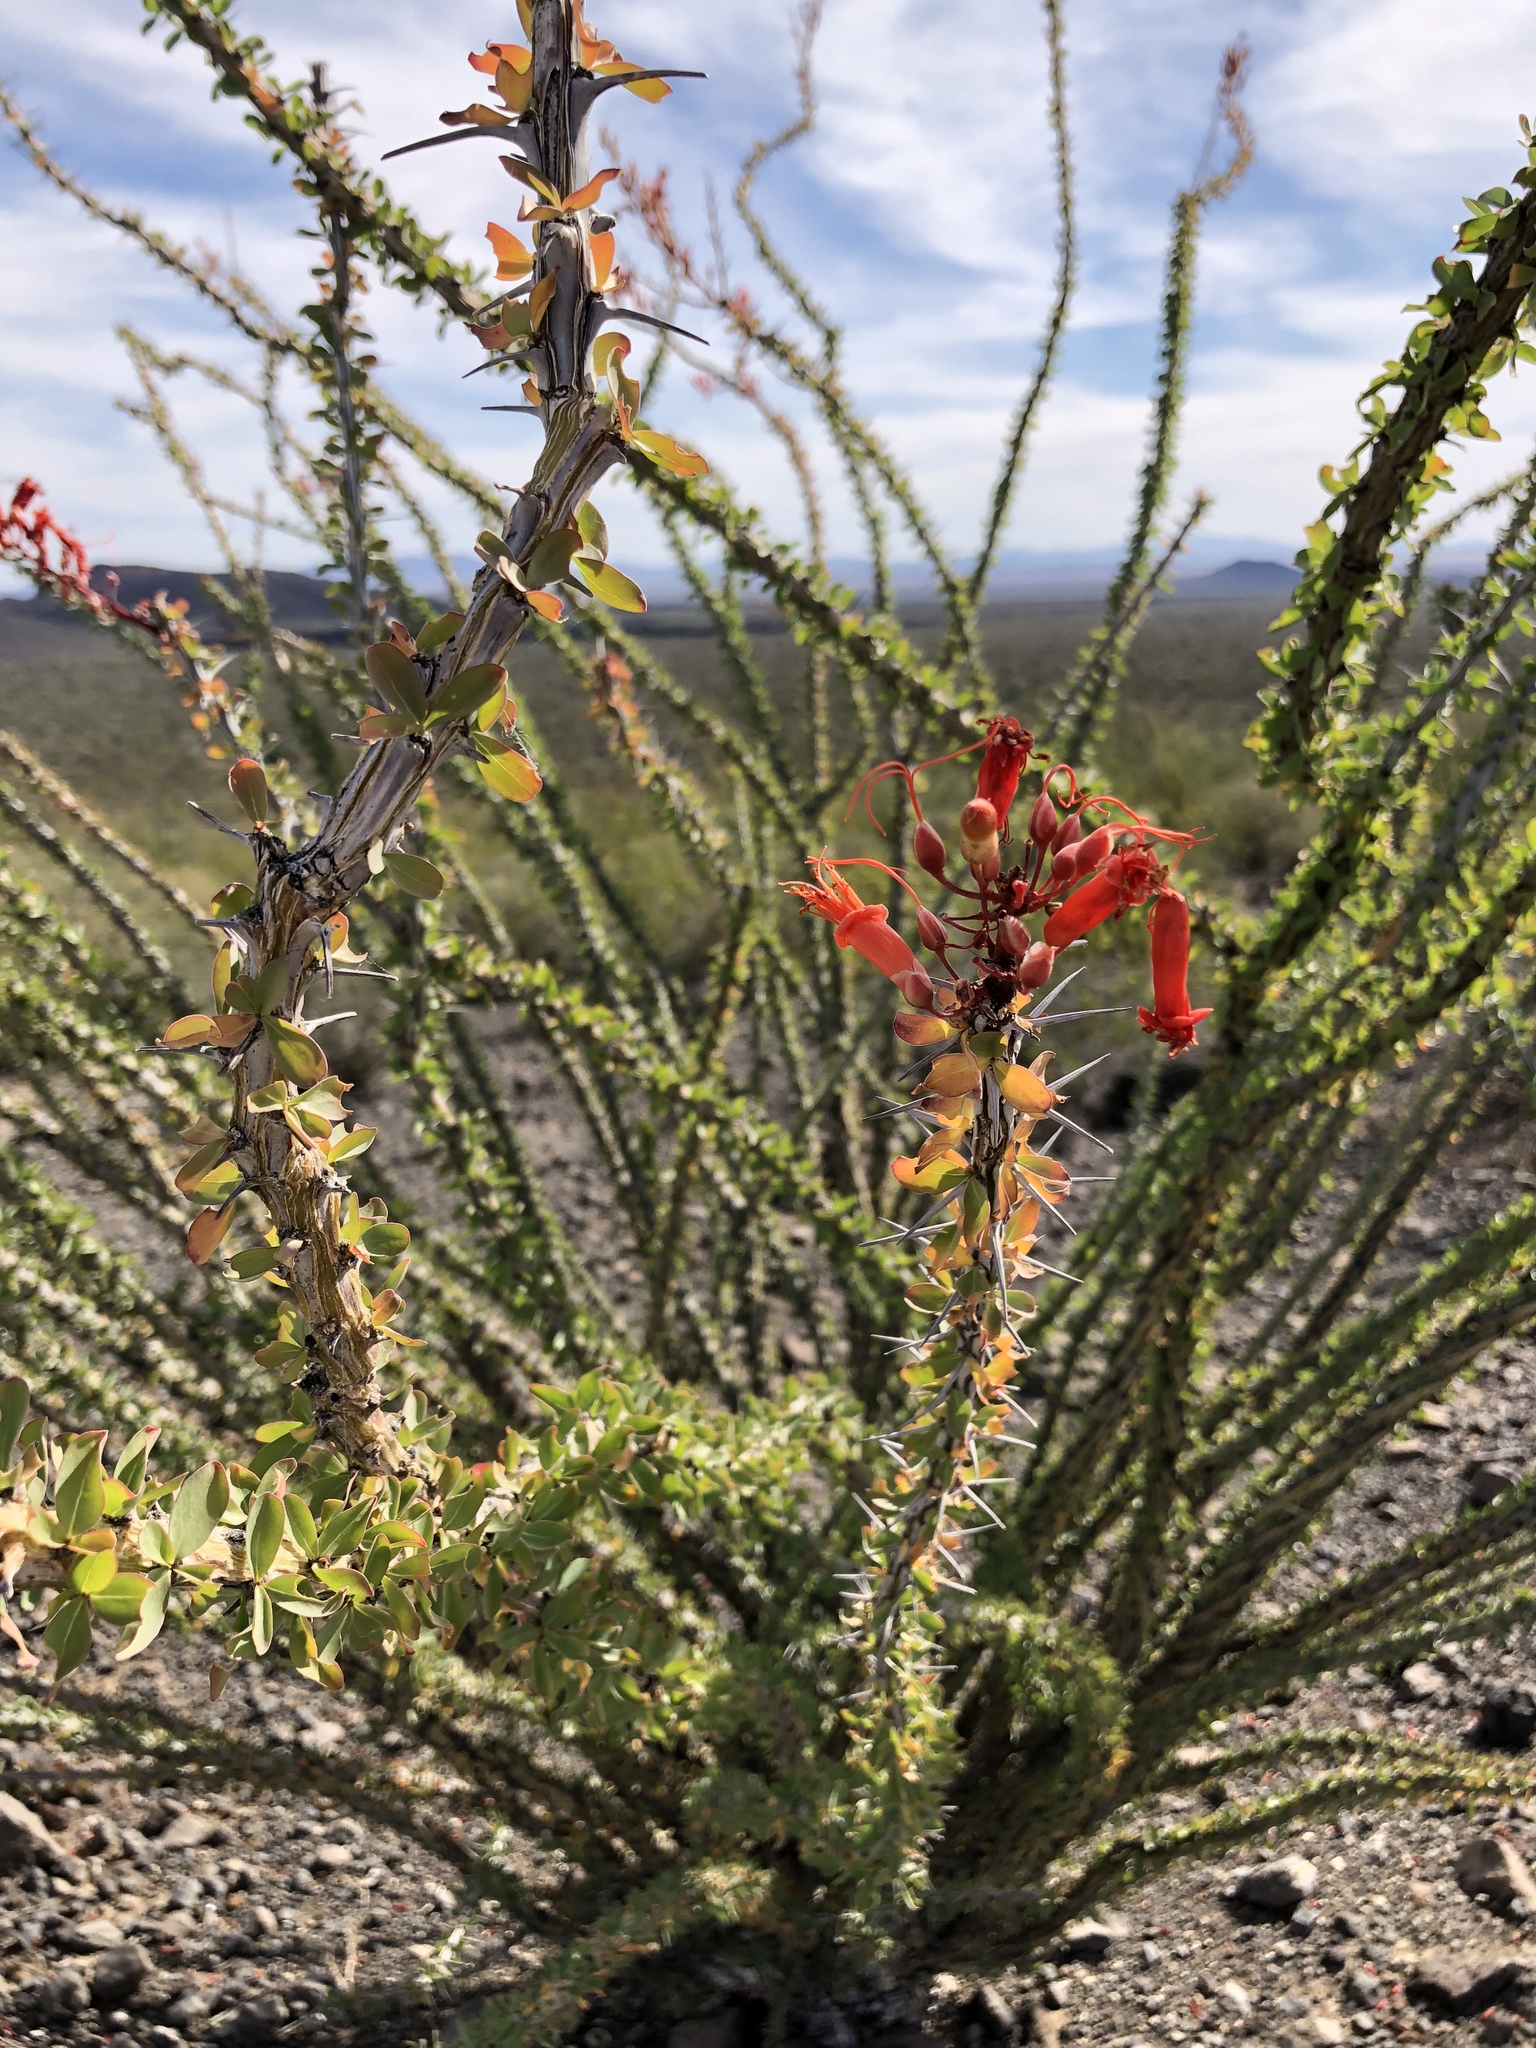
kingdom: Plantae
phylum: Tracheophyta
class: Magnoliopsida
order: Ericales
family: Fouquieriaceae
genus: Fouquieria
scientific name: Fouquieria splendens
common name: Vine-cactus
